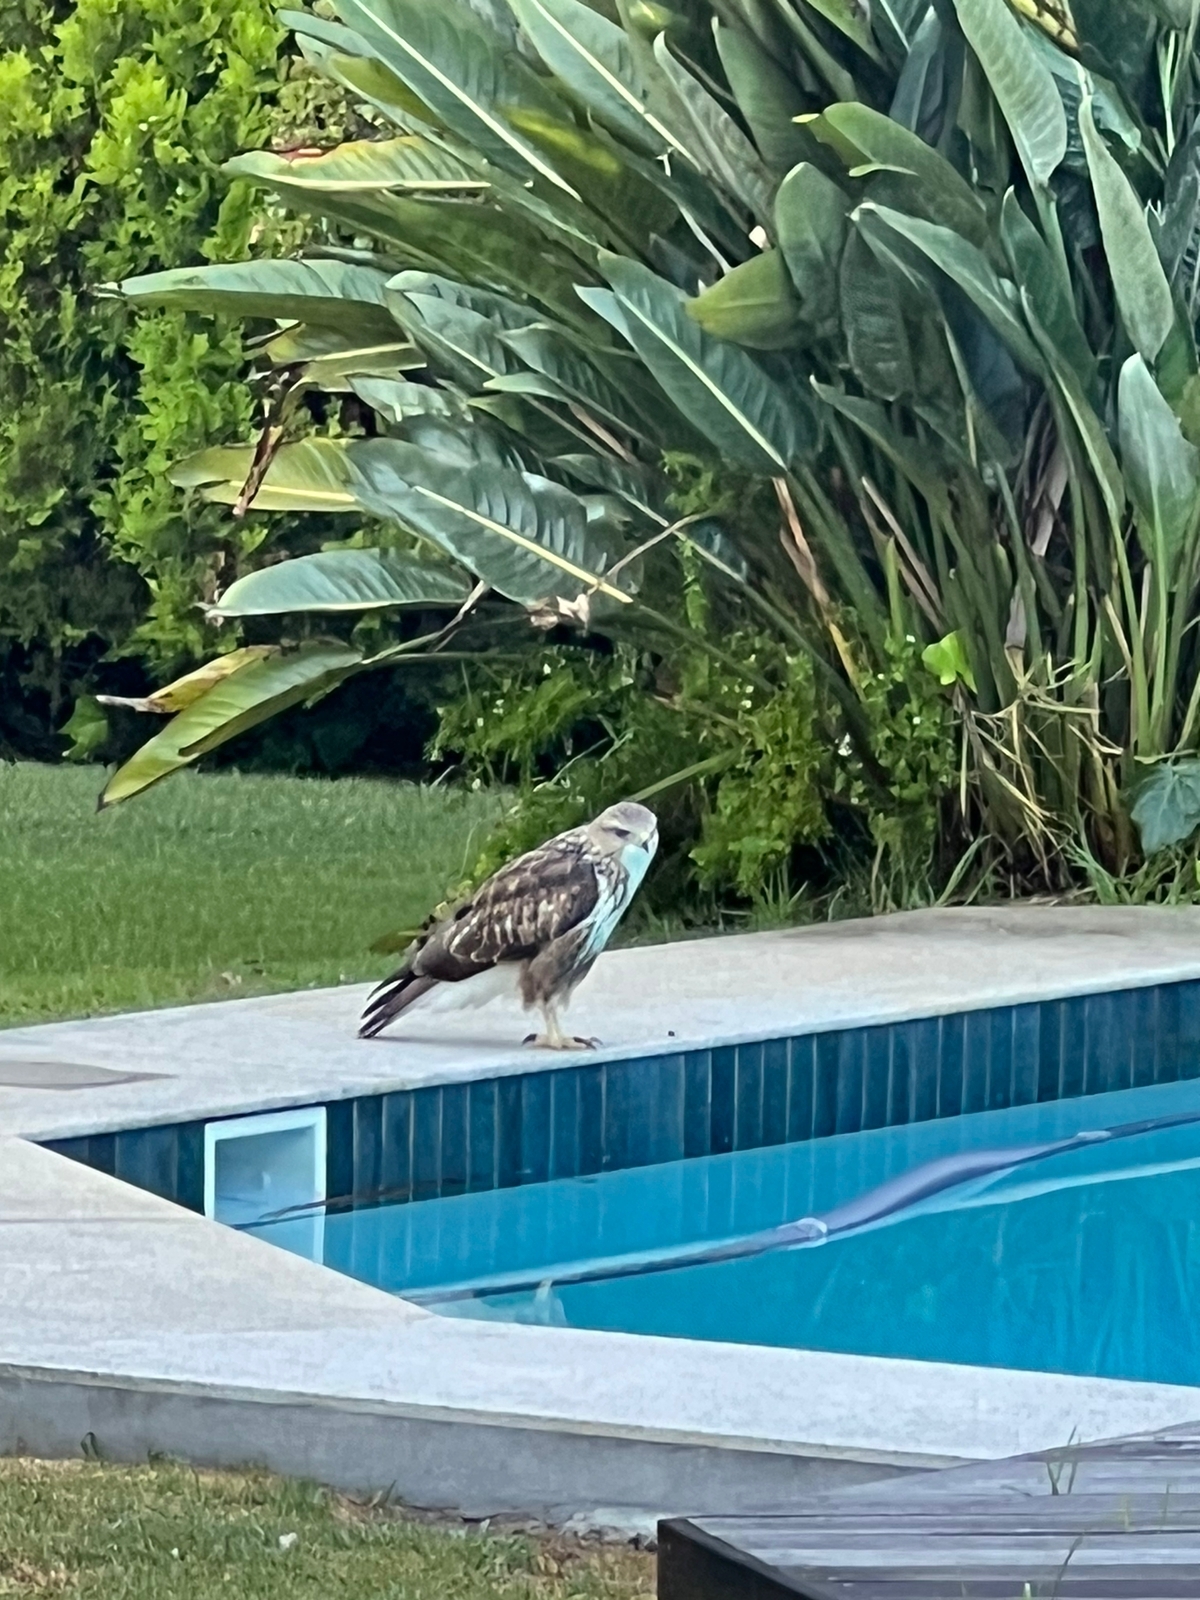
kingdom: Animalia
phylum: Chordata
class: Aves
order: Accipitriformes
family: Accipitridae
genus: Buteo
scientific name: Buteo trizonatus
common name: Forest buzzard
